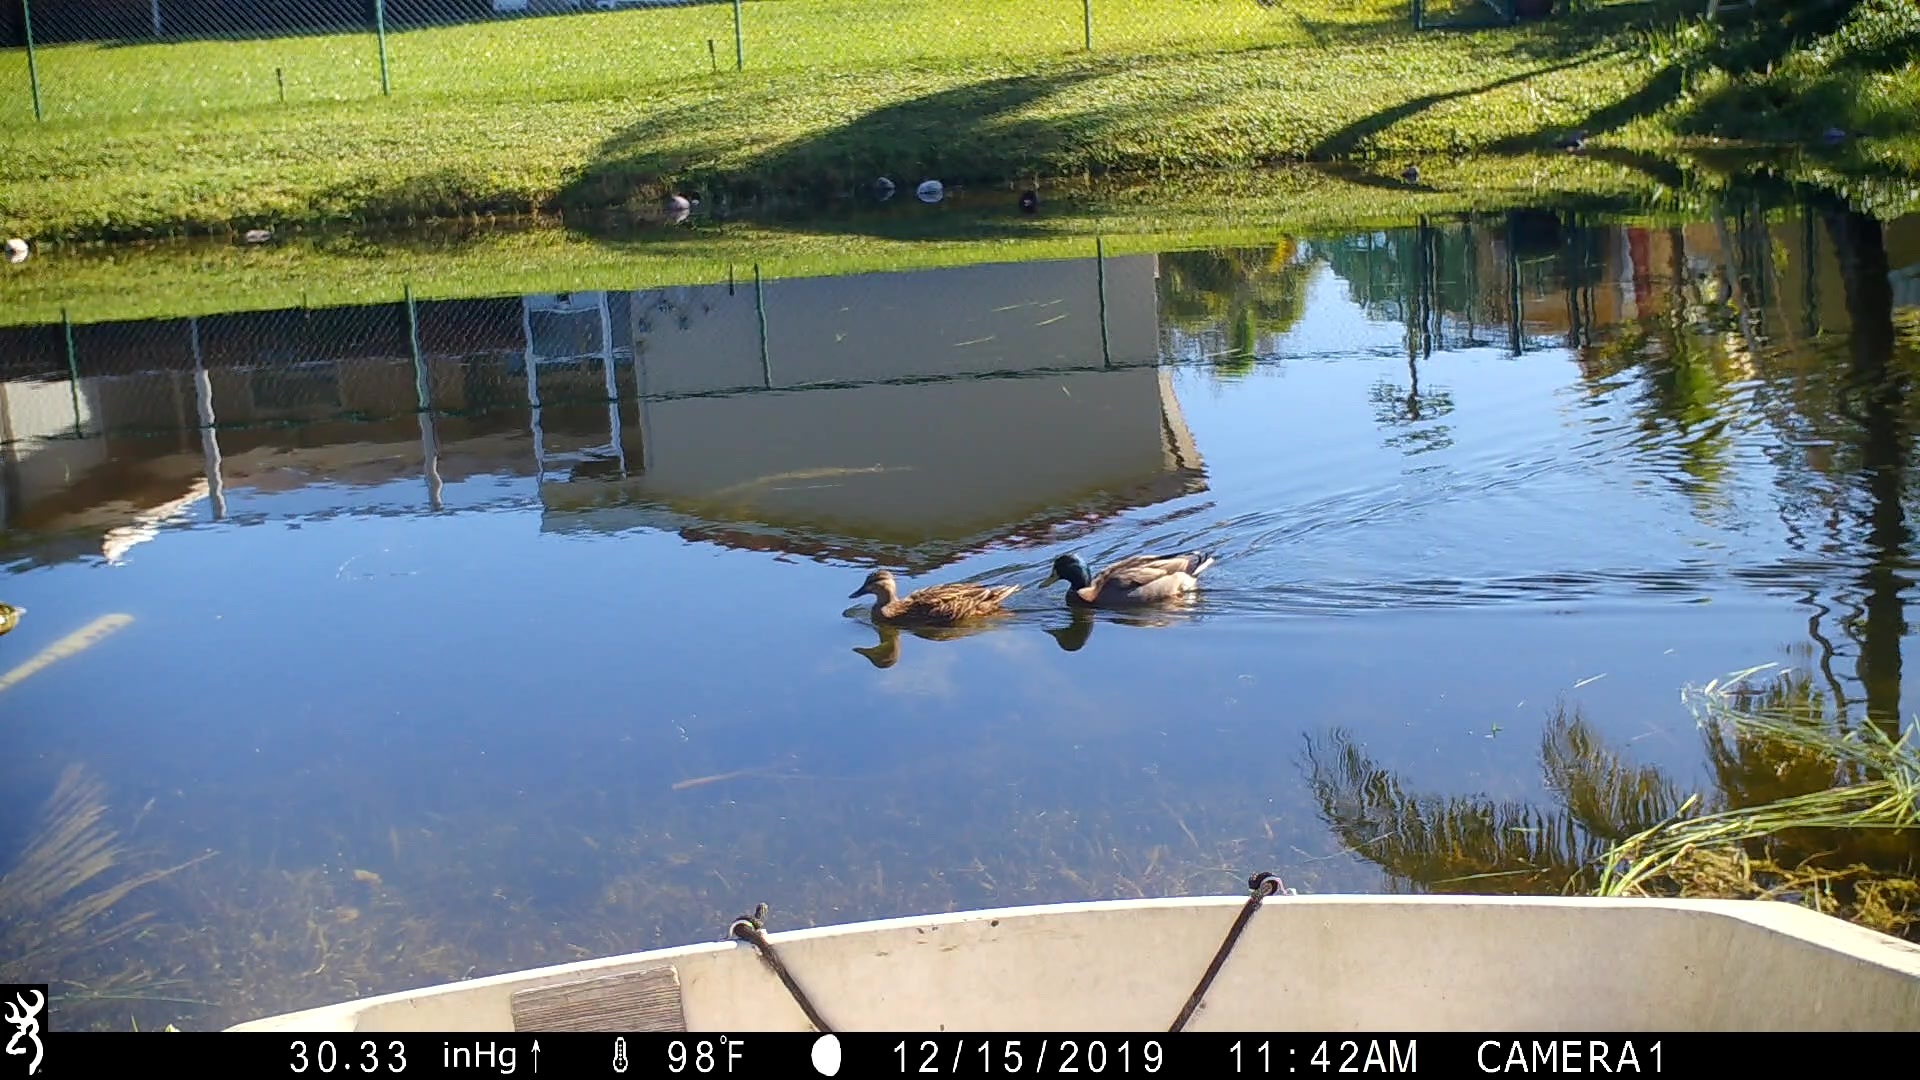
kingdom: Animalia
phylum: Chordata
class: Aves
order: Anseriformes
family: Anatidae
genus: Anas
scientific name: Anas platyrhynchos
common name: Mallard
